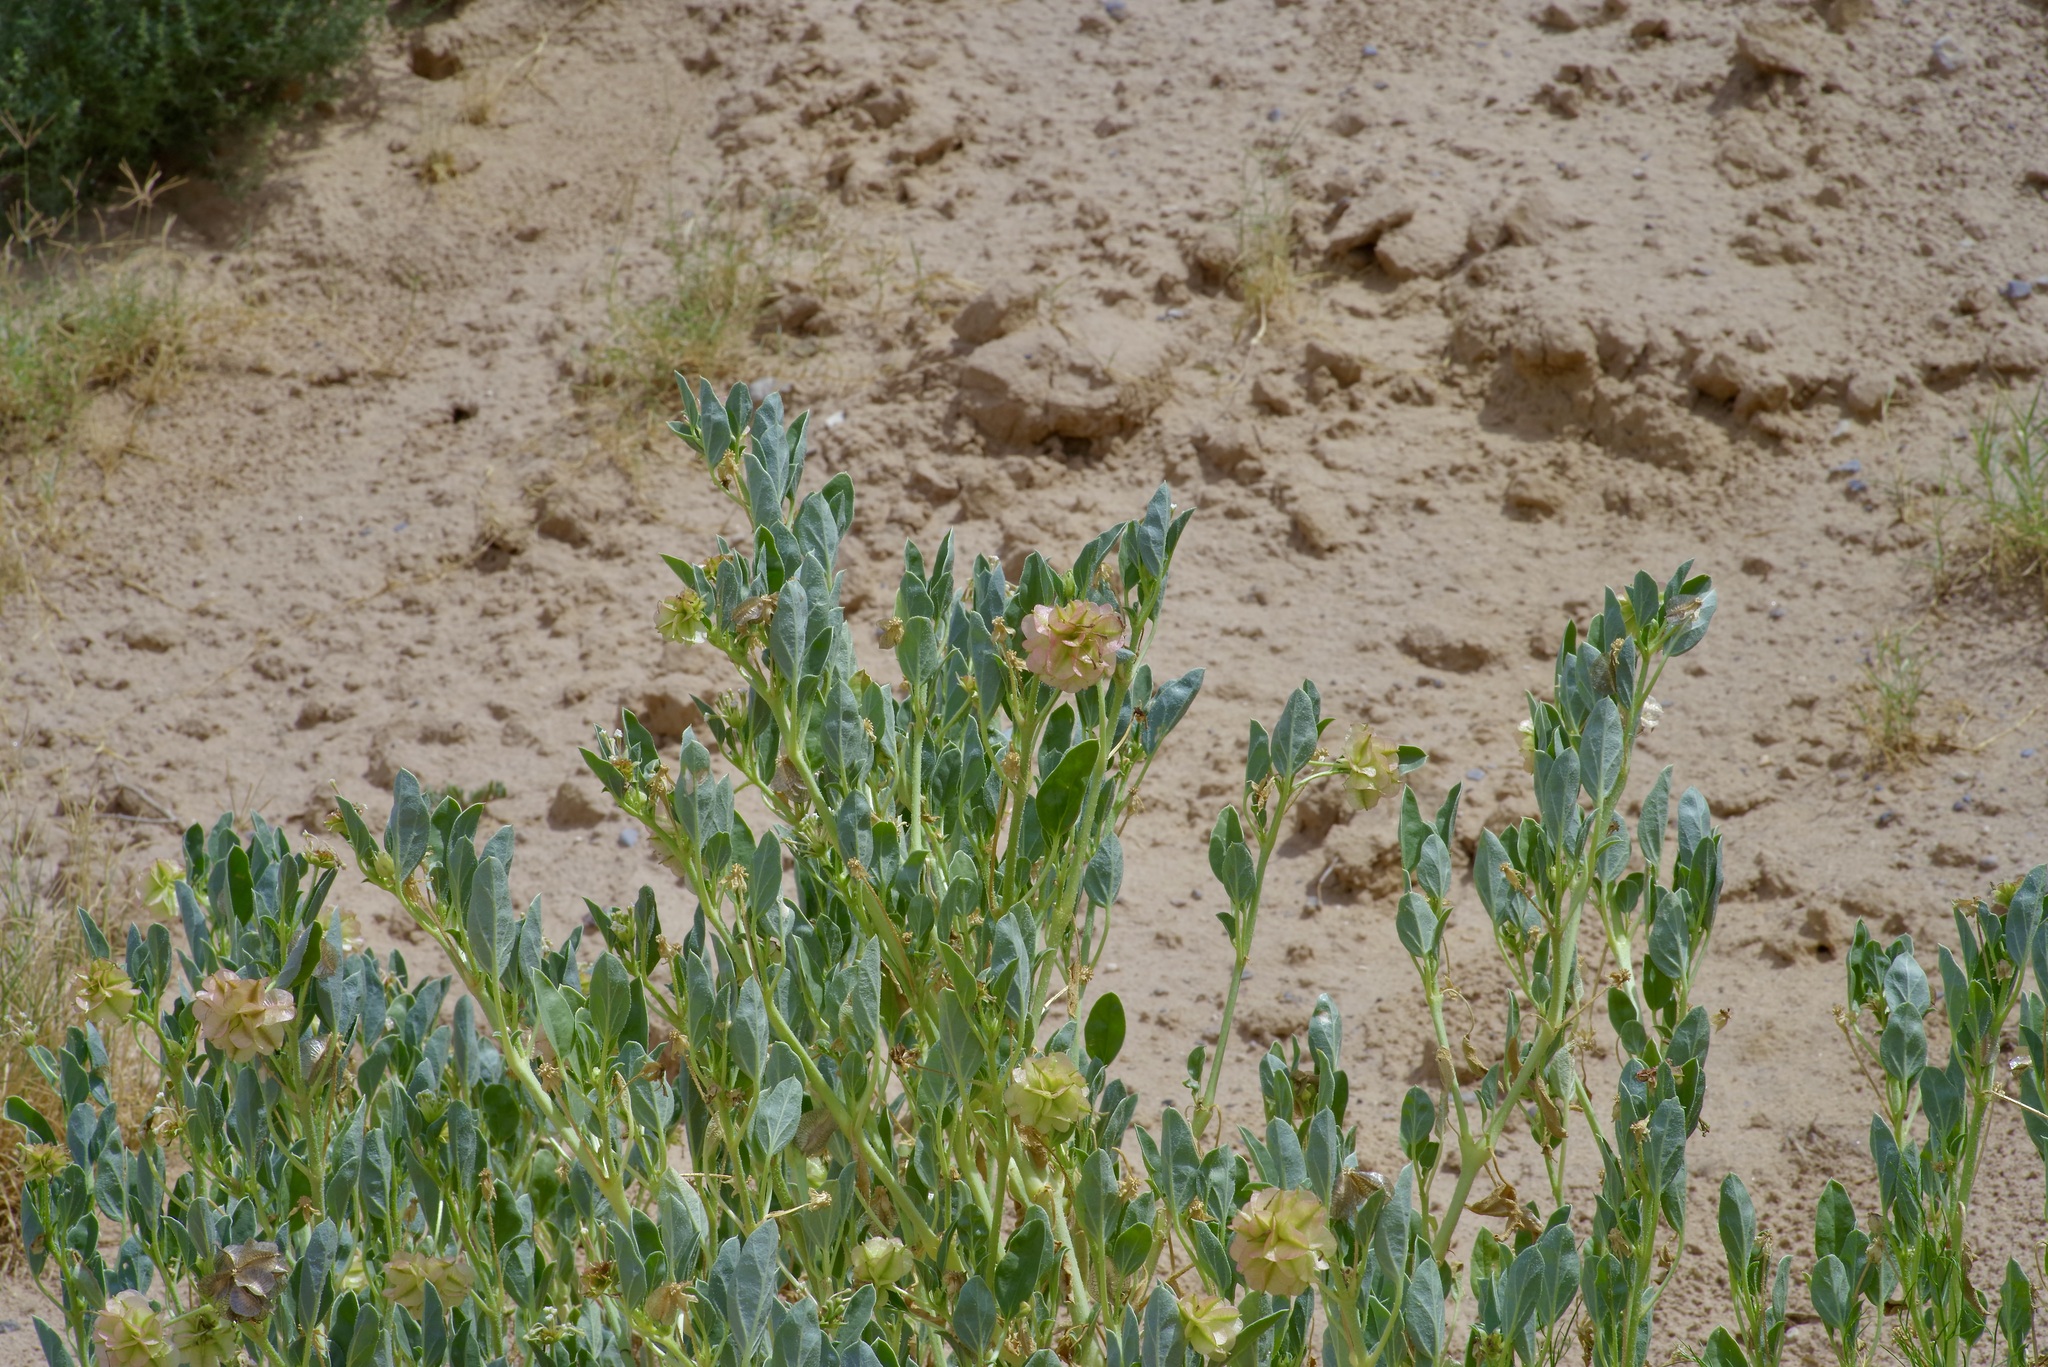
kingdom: Plantae
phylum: Tracheophyta
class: Magnoliopsida
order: Caryophyllales
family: Nyctaginaceae
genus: Tripterocalyx
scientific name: Tripterocalyx carneus
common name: Winged sandpuffs
